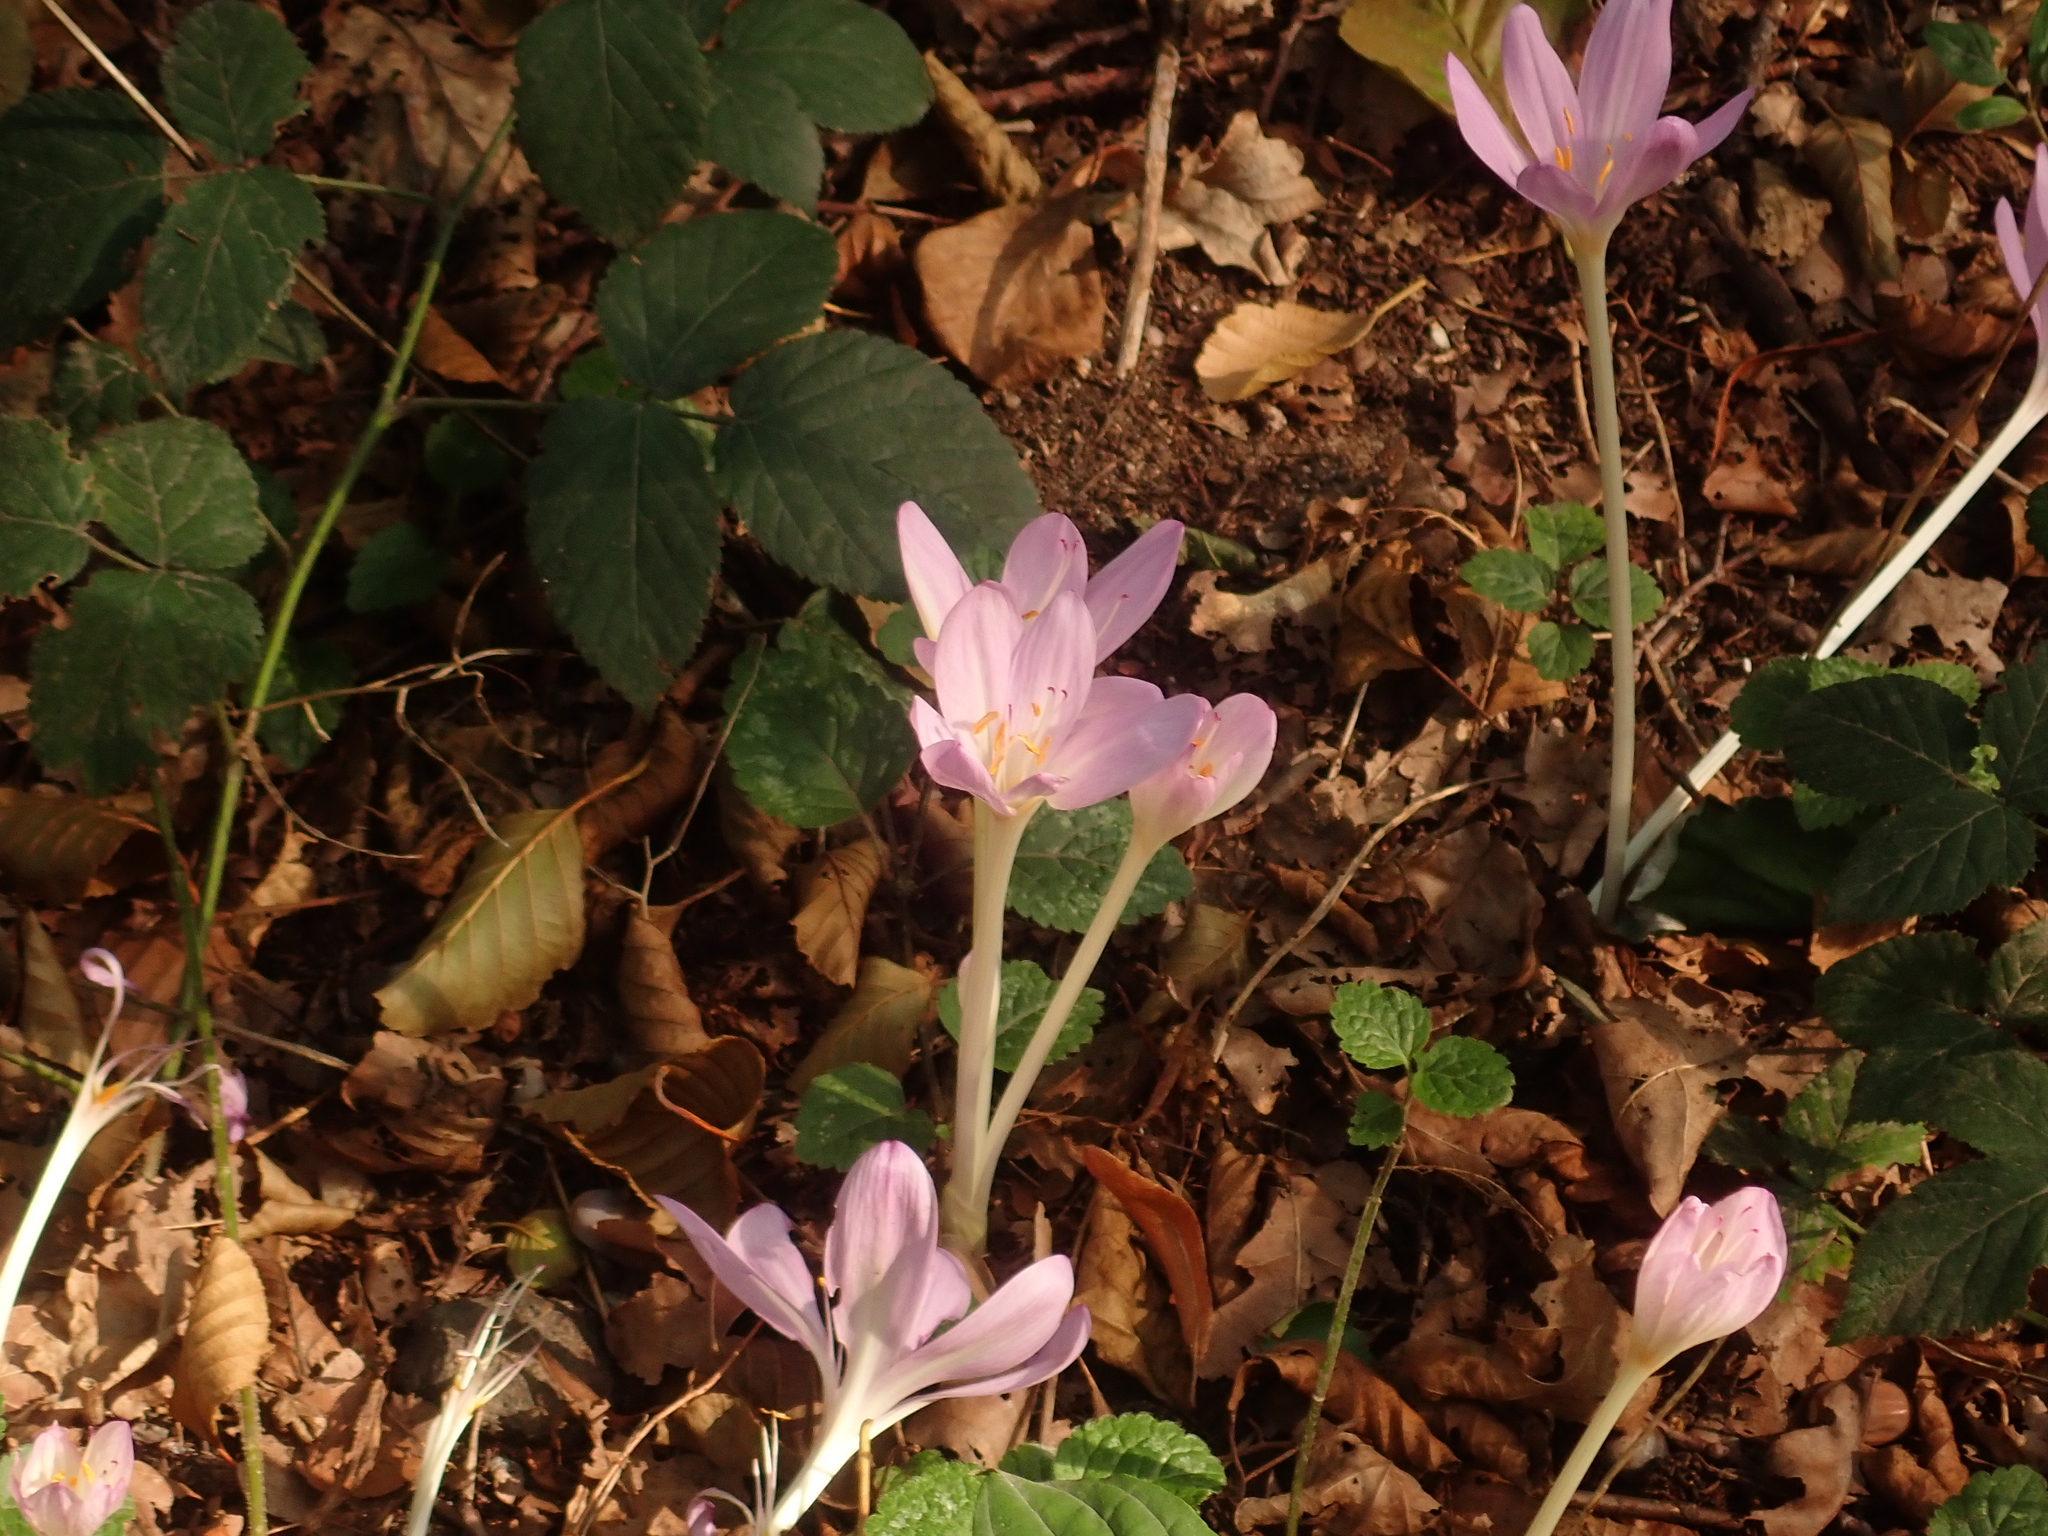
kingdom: Plantae
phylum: Tracheophyta
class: Liliopsida
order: Liliales
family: Colchicaceae
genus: Colchicum
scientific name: Colchicum autumnale
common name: Autumn crocus
